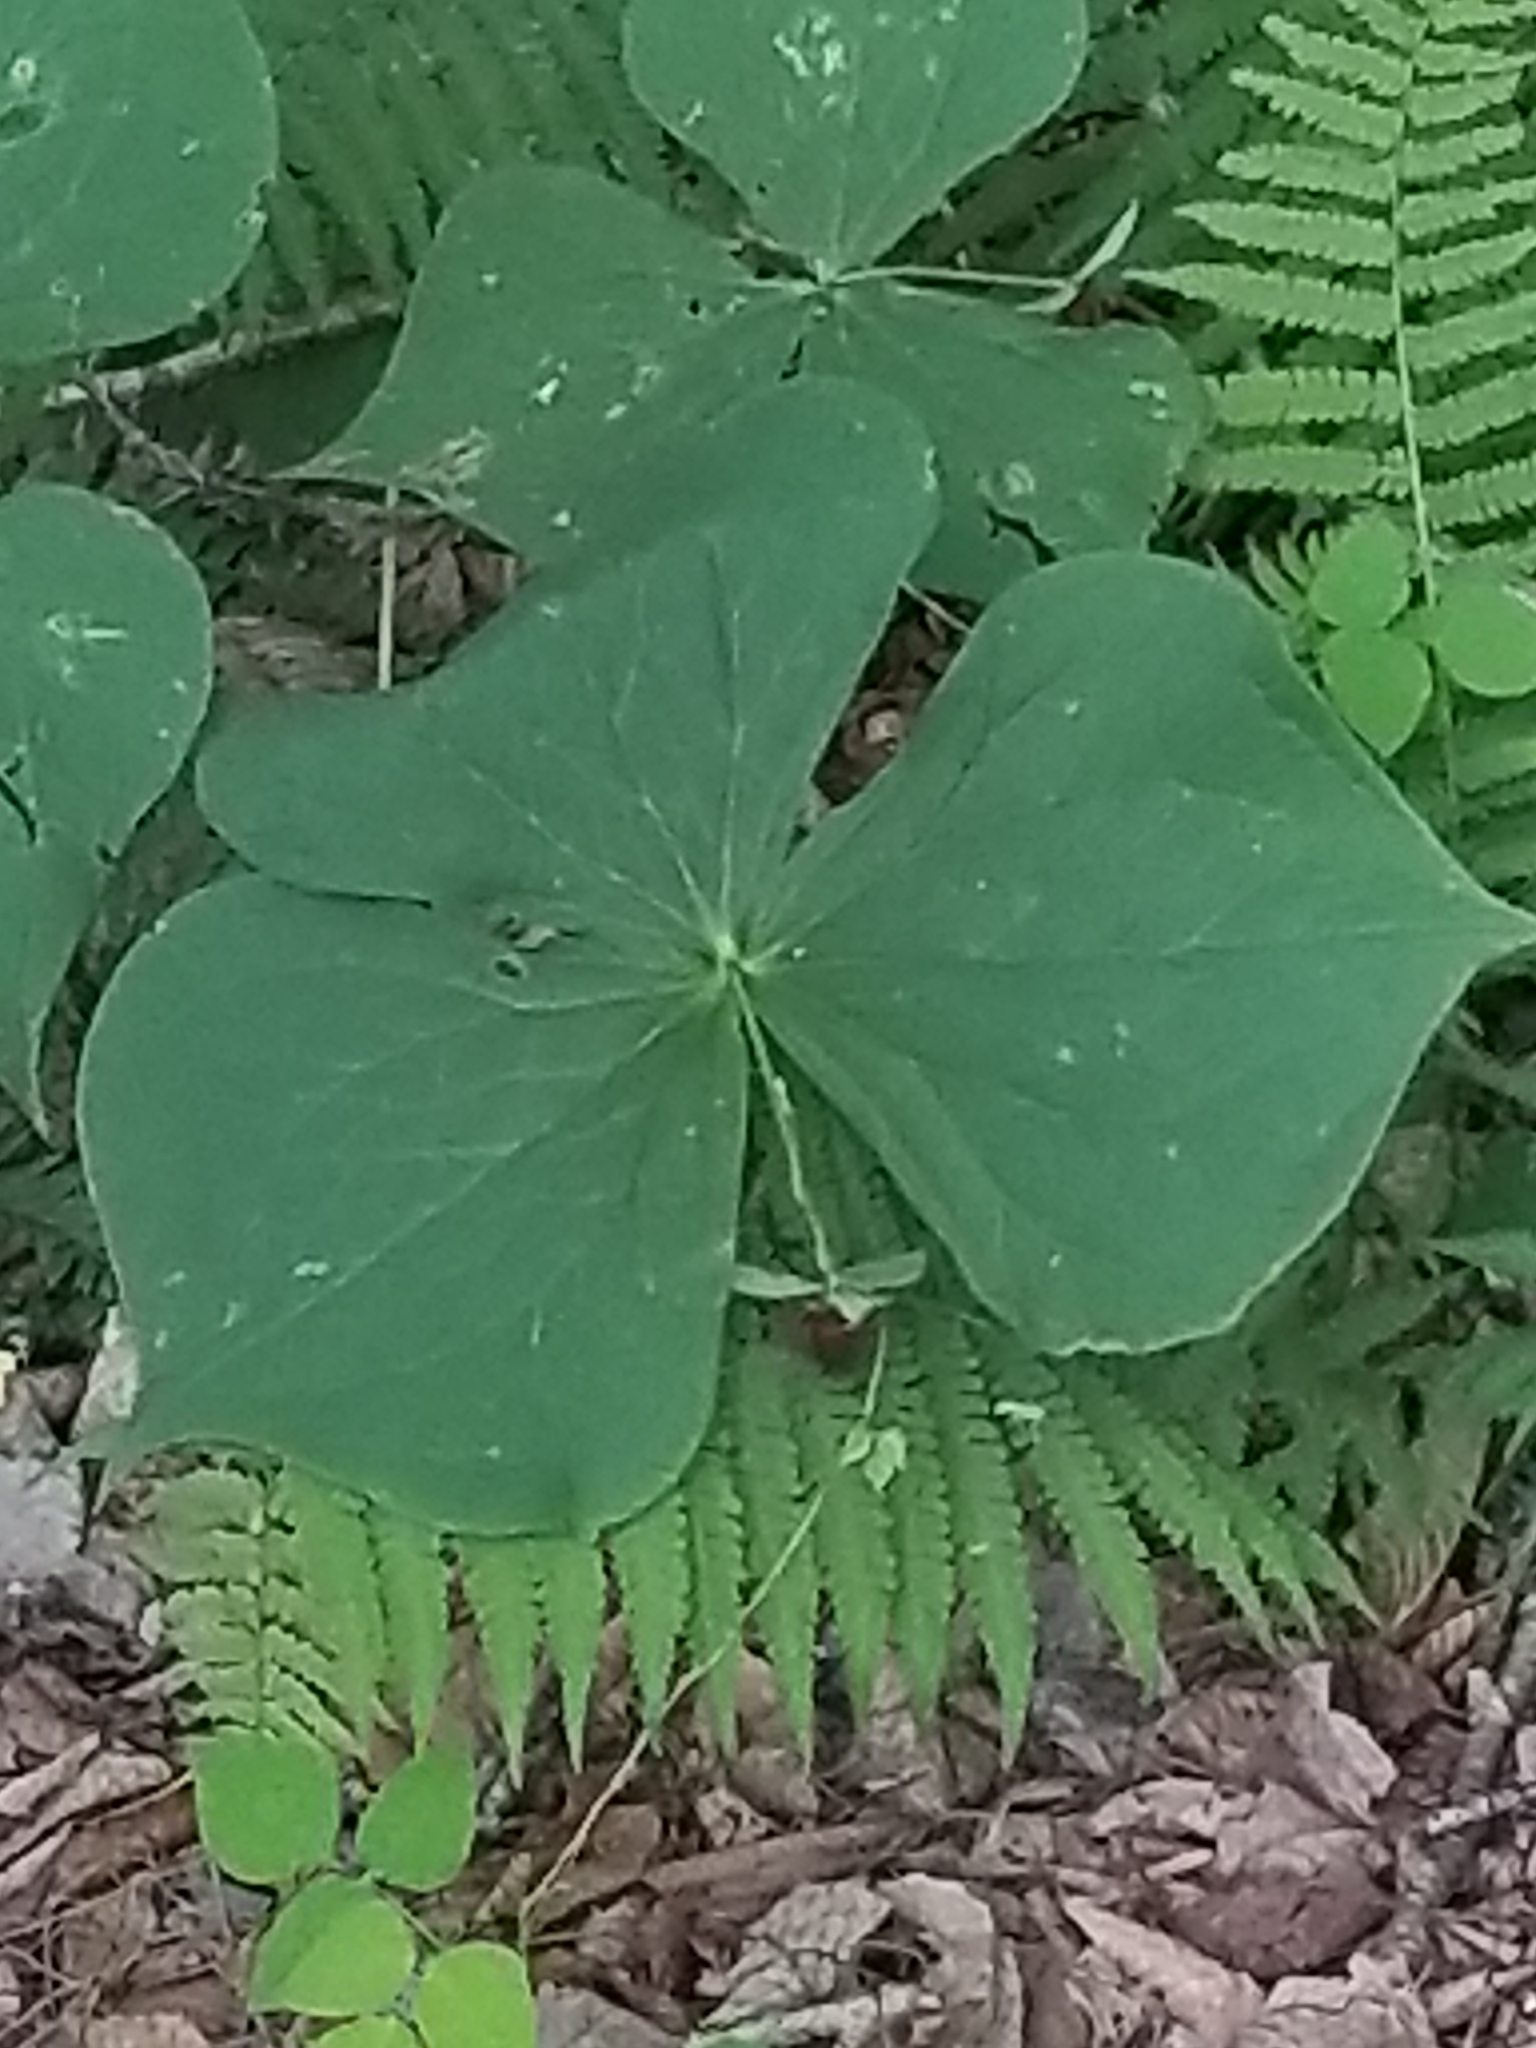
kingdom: Plantae
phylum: Tracheophyta
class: Liliopsida
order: Liliales
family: Melanthiaceae
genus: Trillium
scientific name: Trillium erectum
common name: Purple trillium
